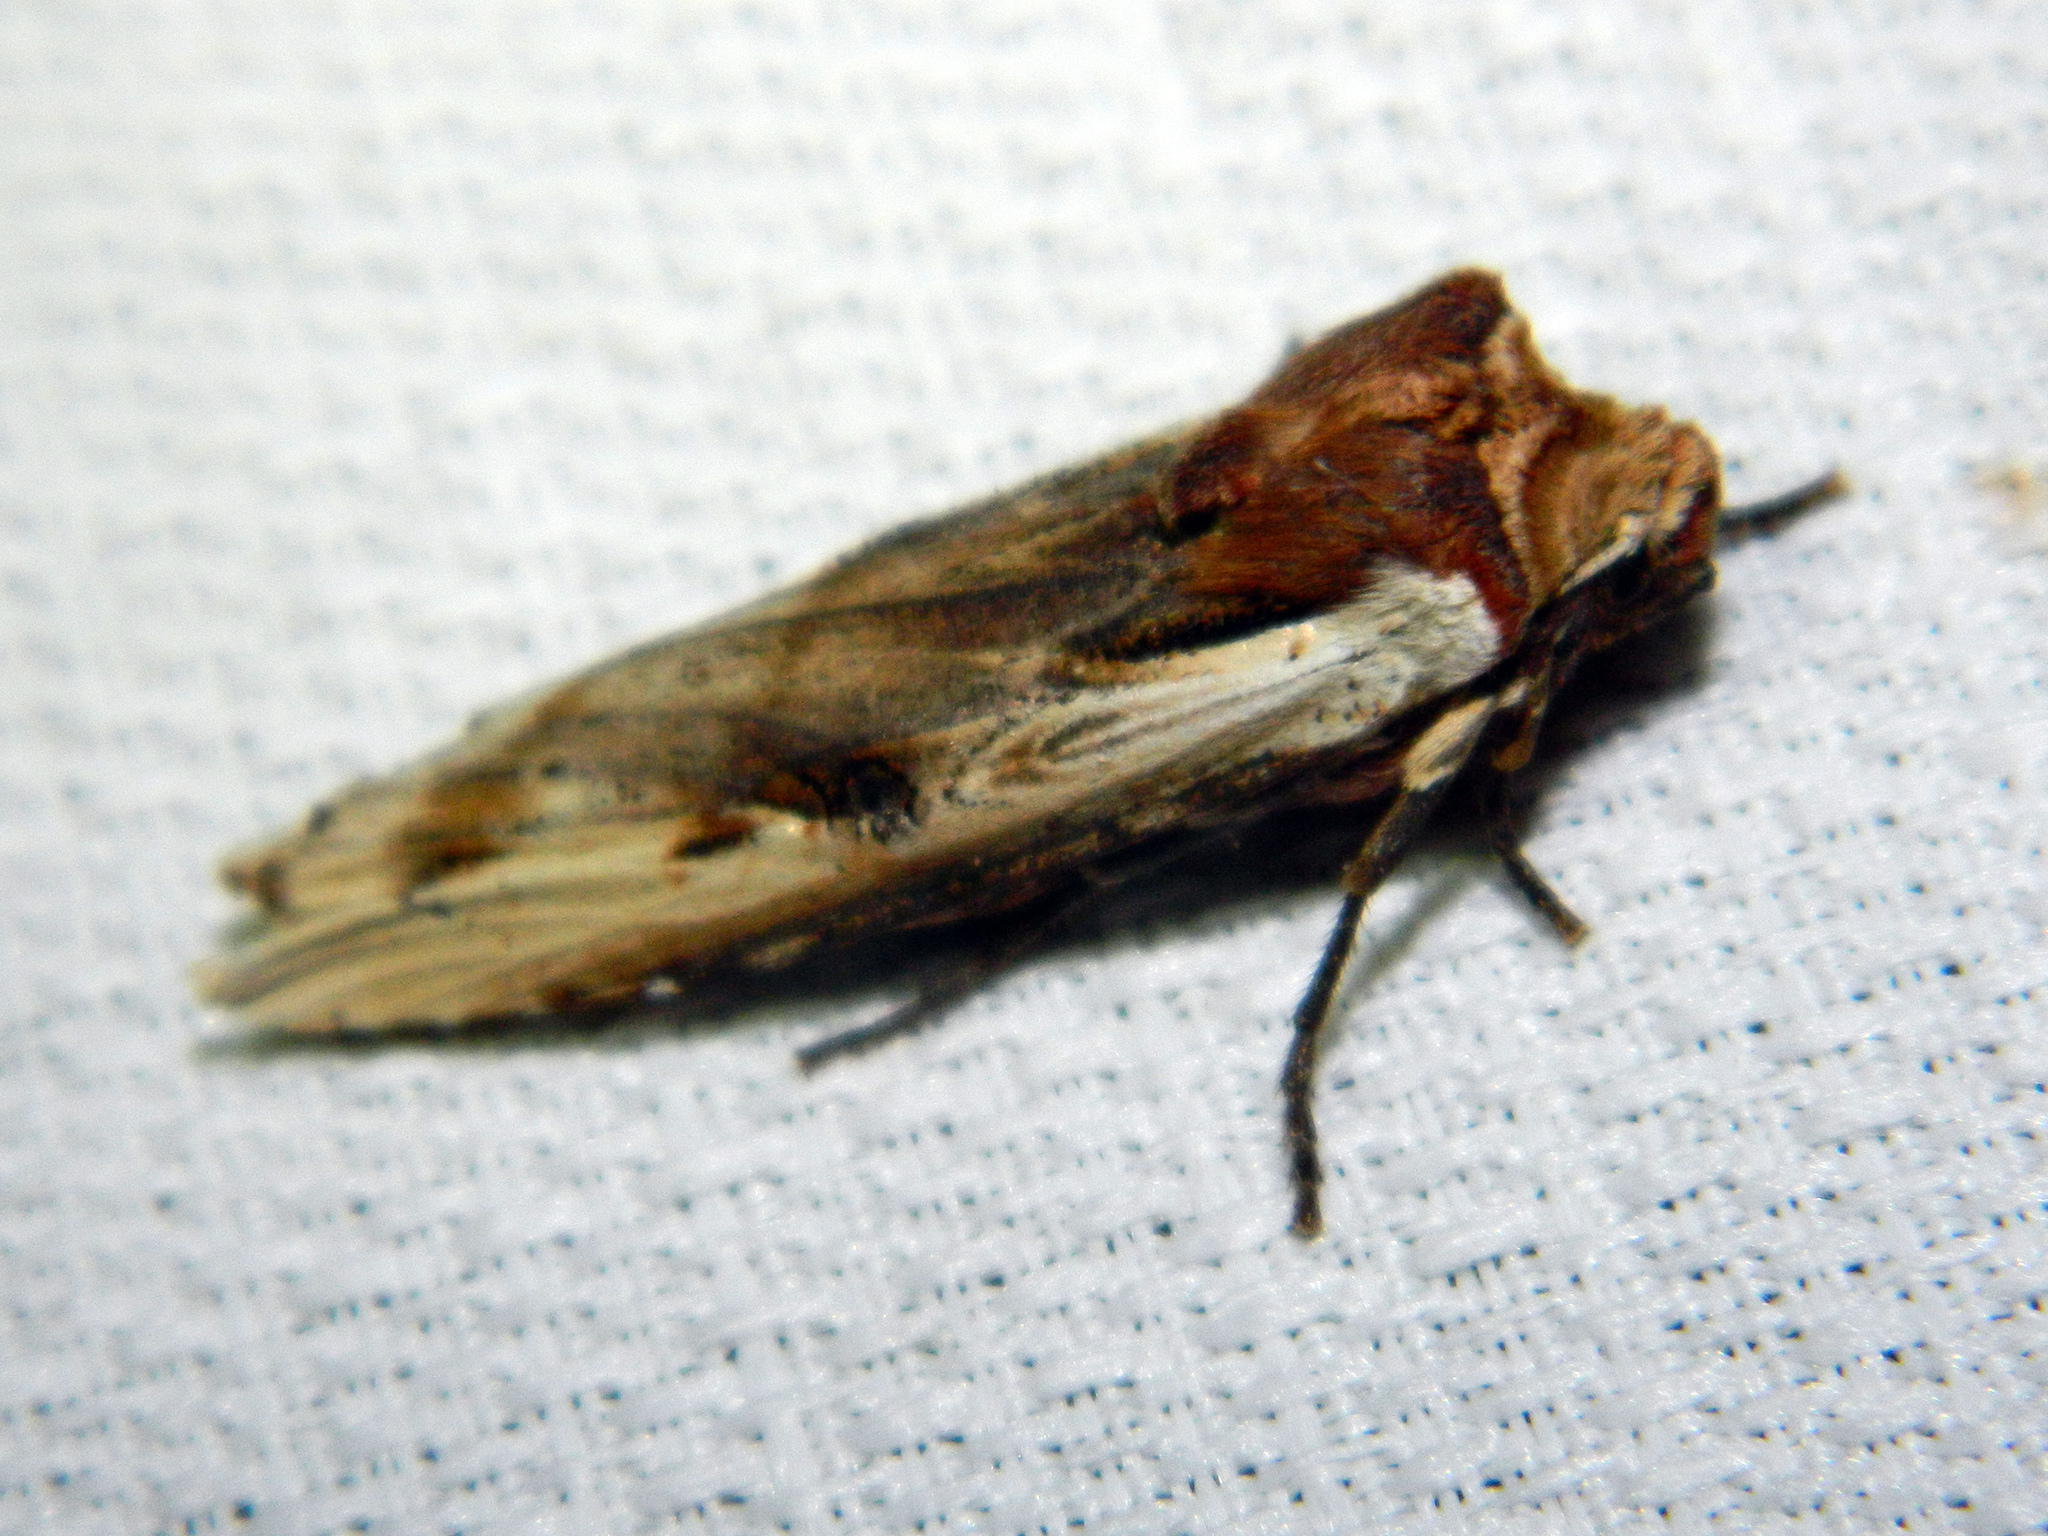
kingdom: Animalia
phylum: Arthropoda
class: Insecta
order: Lepidoptera
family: Noctuidae
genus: Xylena
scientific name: Xylena curvimacula
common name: Dot-and-dash swordgrass moth
